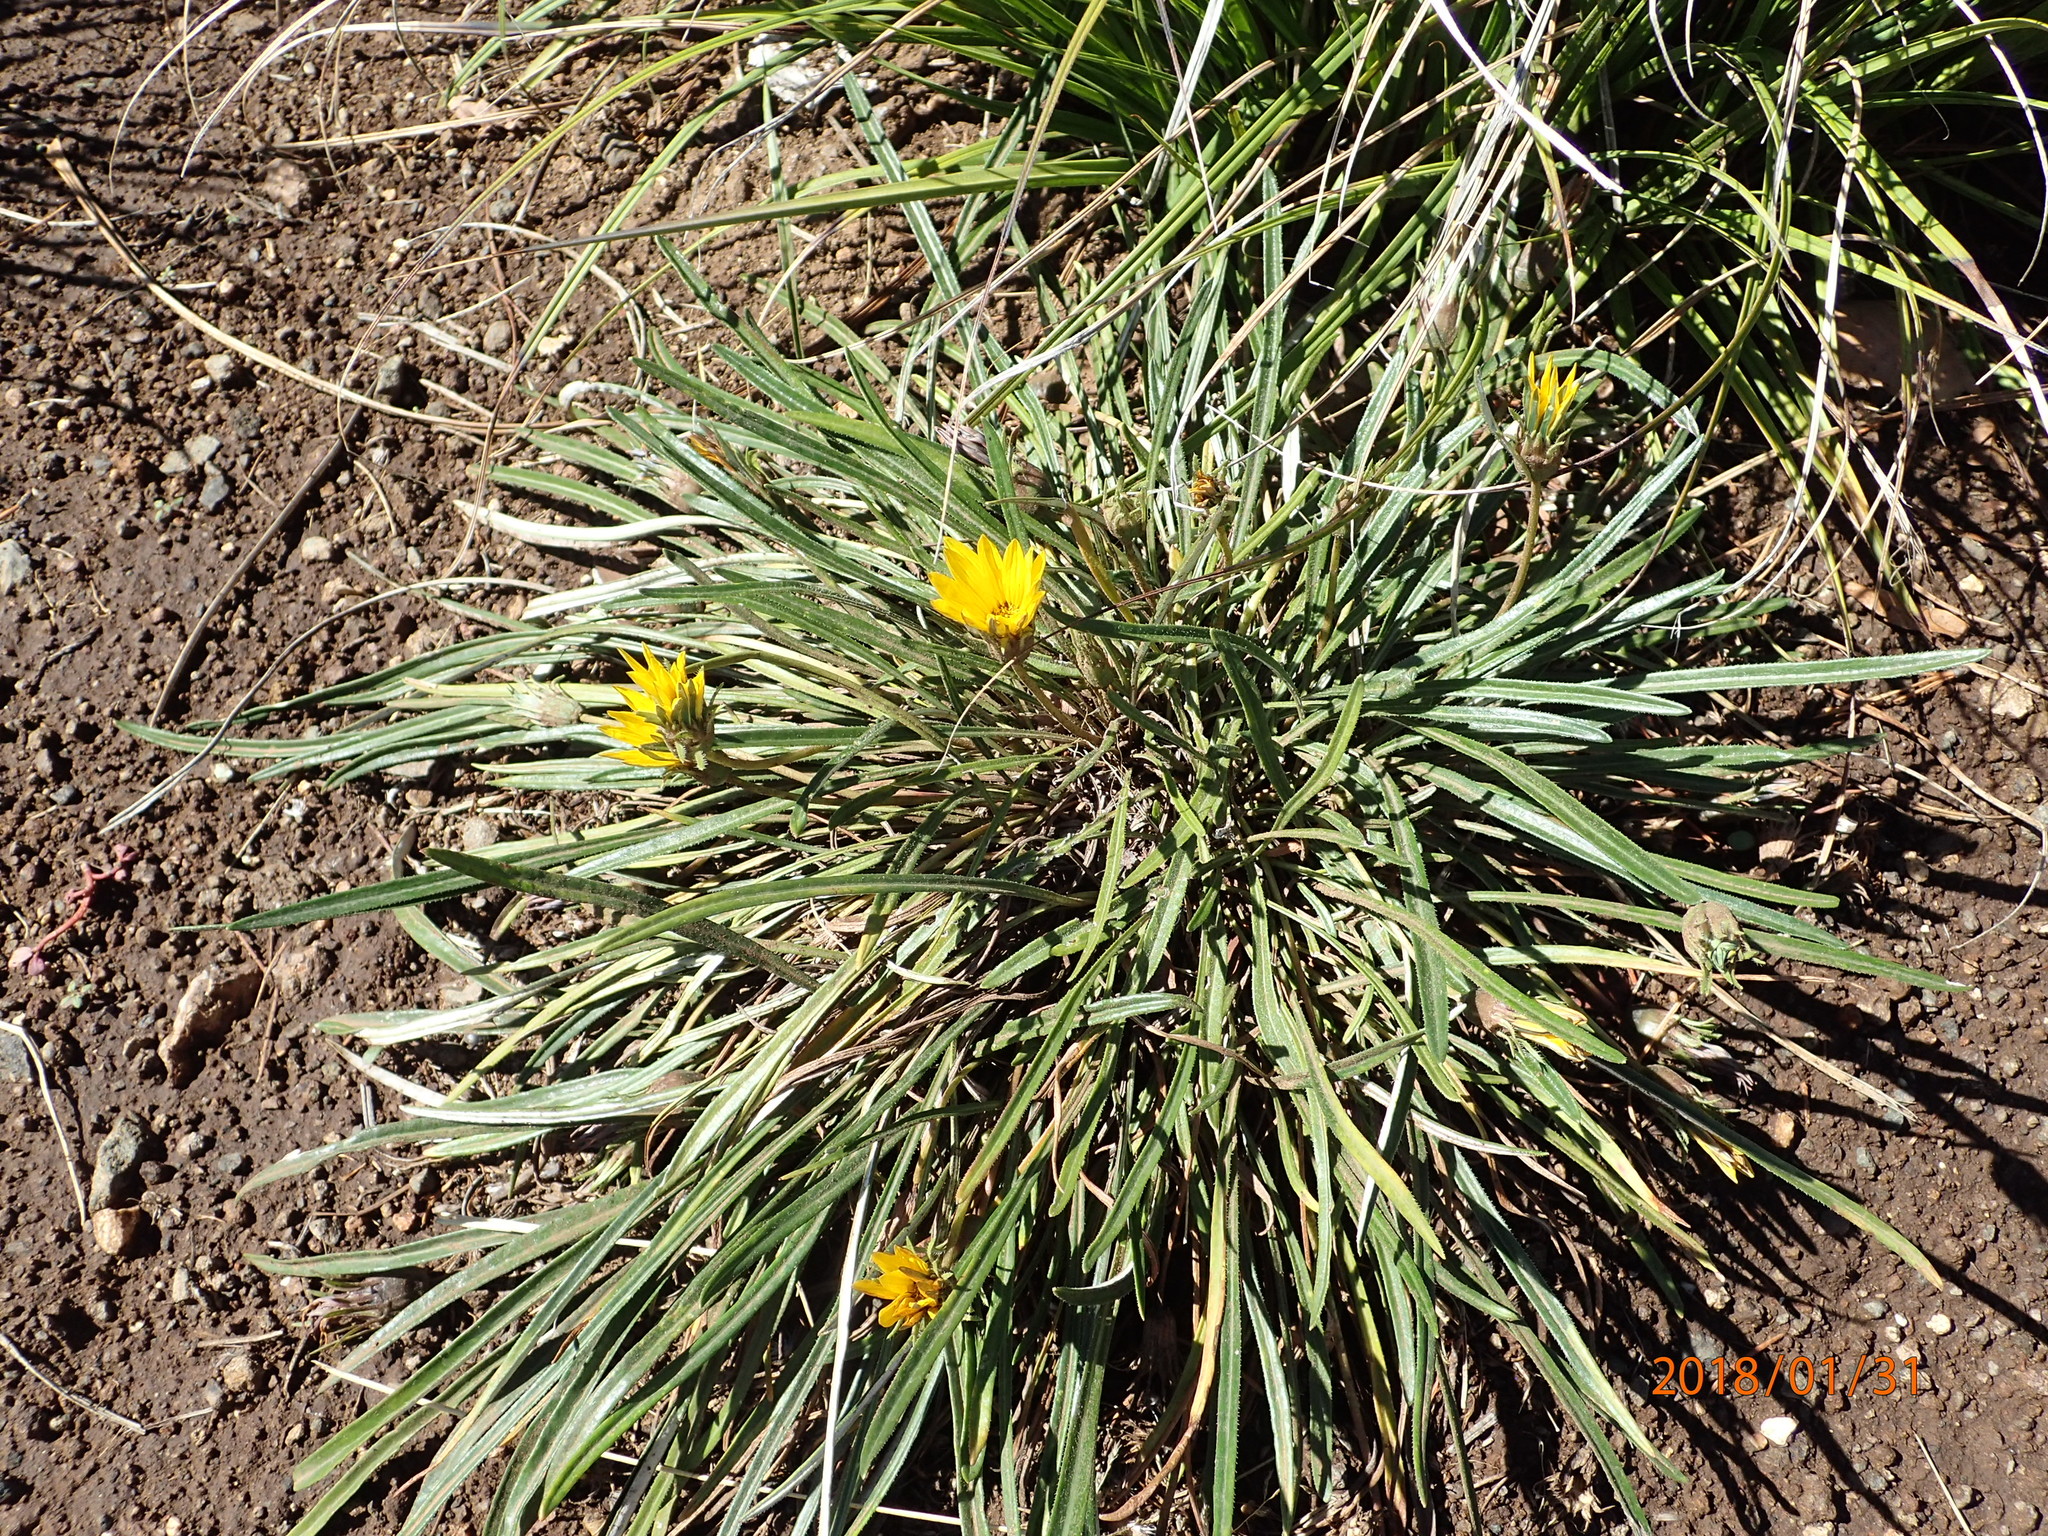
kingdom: Plantae
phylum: Tracheophyta
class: Magnoliopsida
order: Asterales
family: Asteraceae
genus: Gazania
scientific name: Gazania krebsiana
